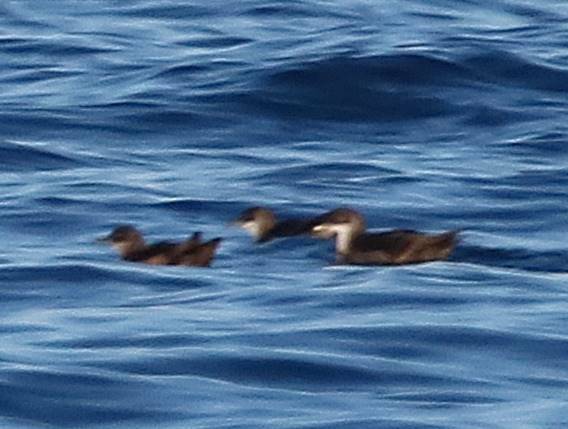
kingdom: Animalia
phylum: Chordata
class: Aves
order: Procellariiformes
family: Procellariidae
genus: Puffinus
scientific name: Puffinus mauretanicus
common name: Balearic shearwater
